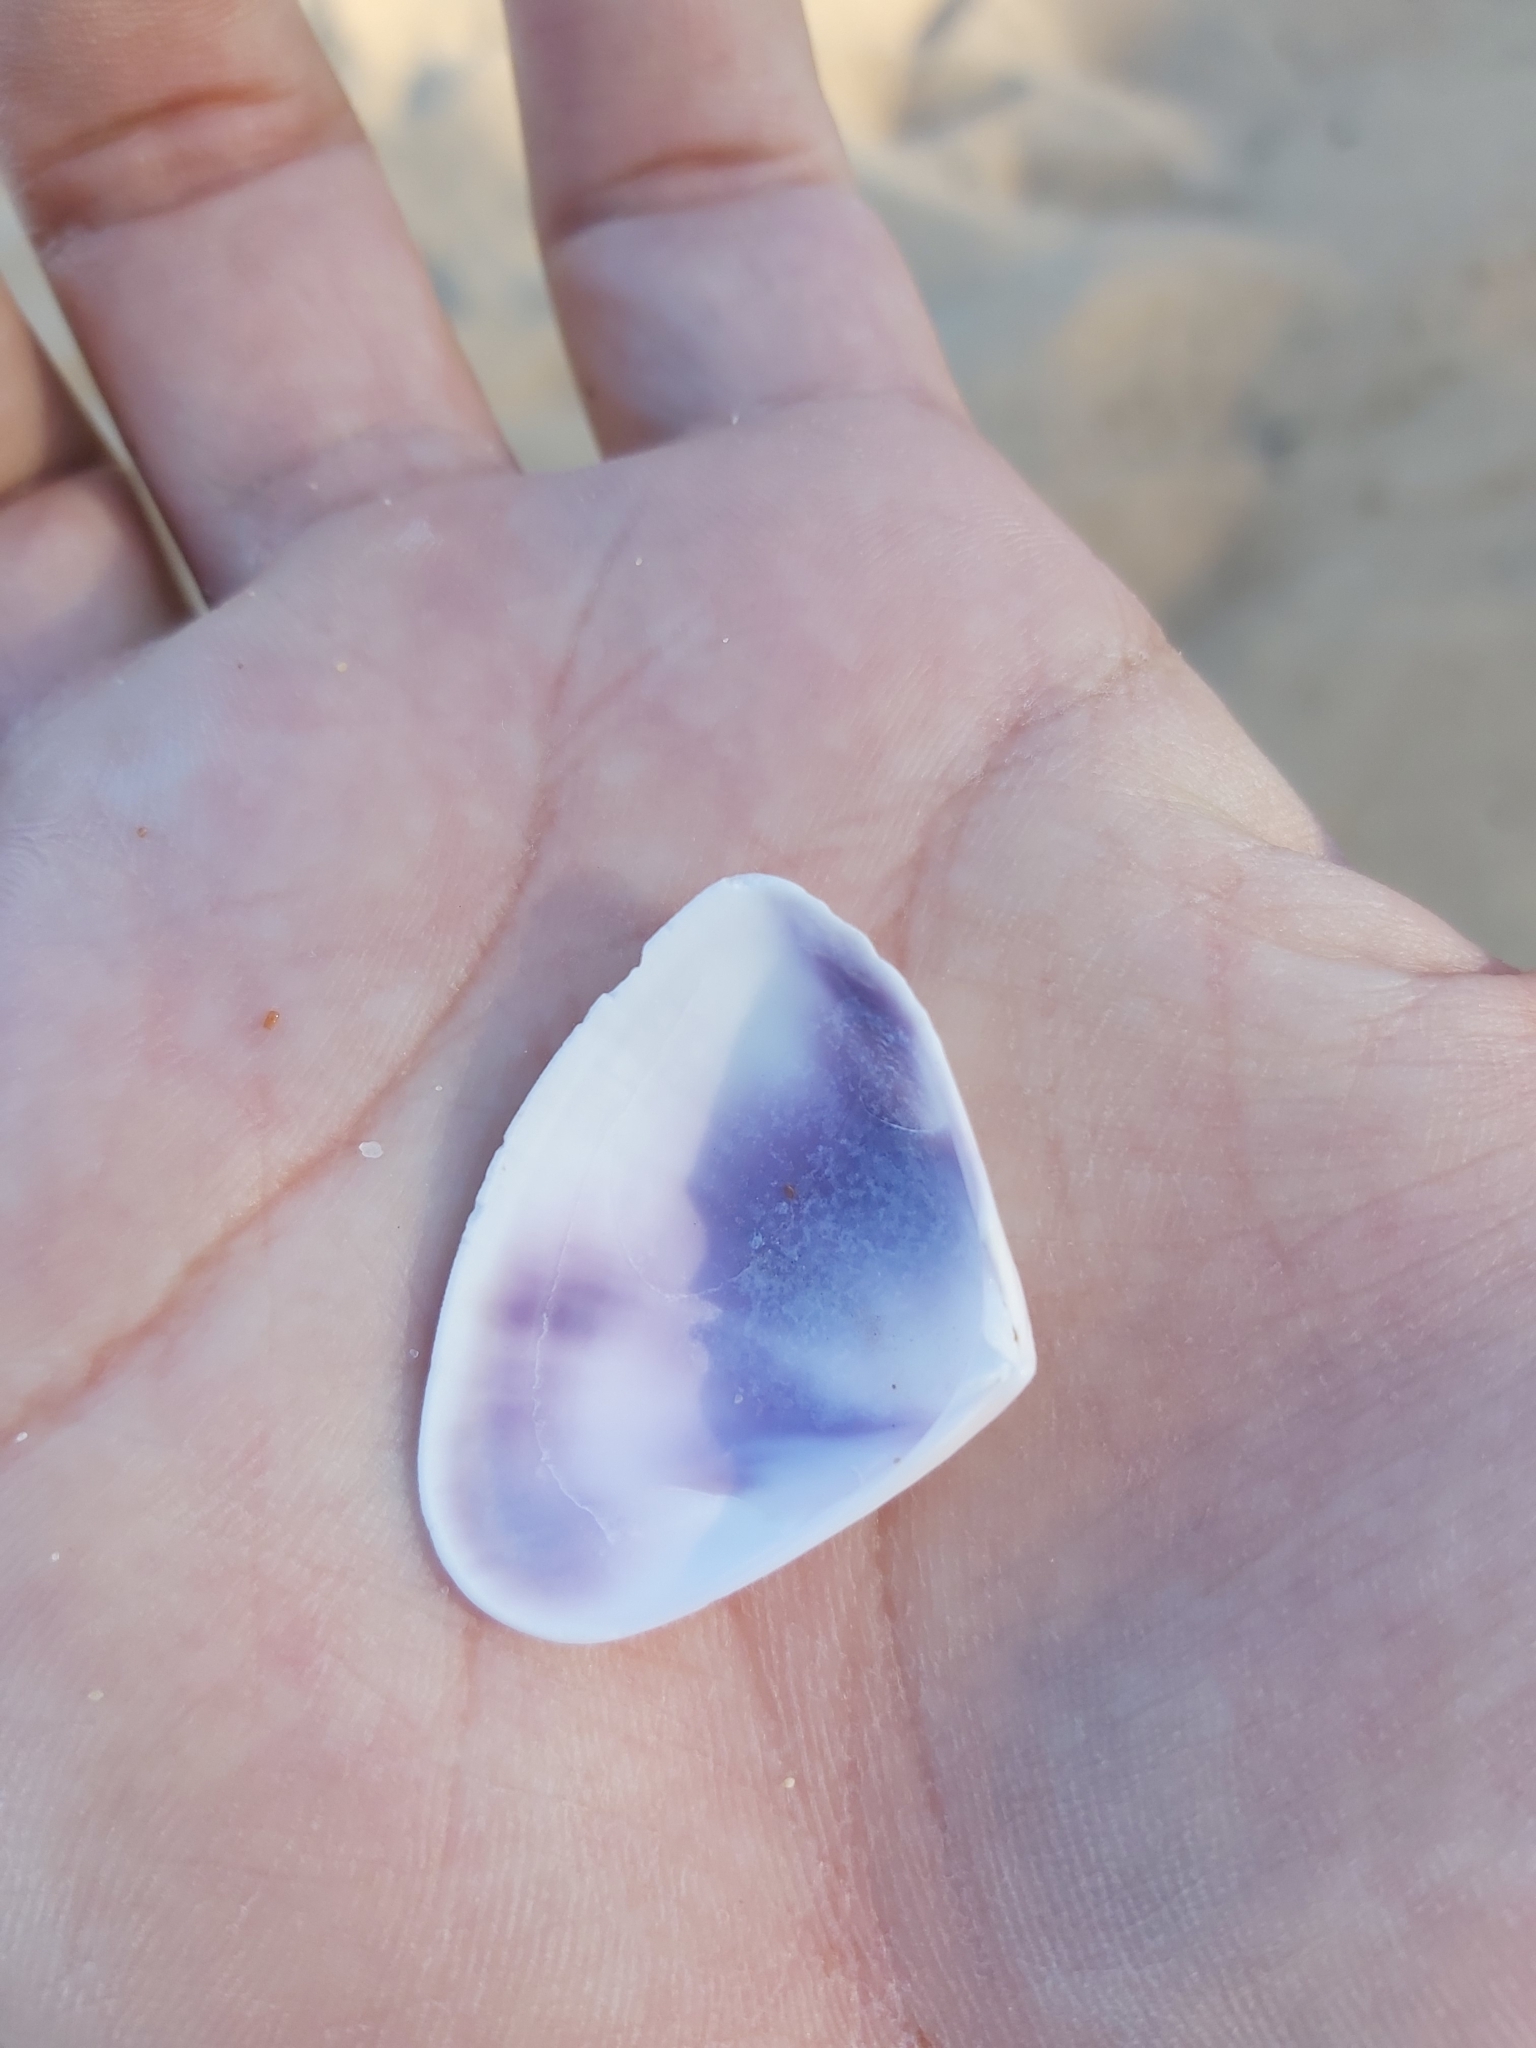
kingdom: Animalia
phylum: Mollusca
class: Bivalvia
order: Cardiida
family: Donacidae
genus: Latona
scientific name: Latona deltoides
